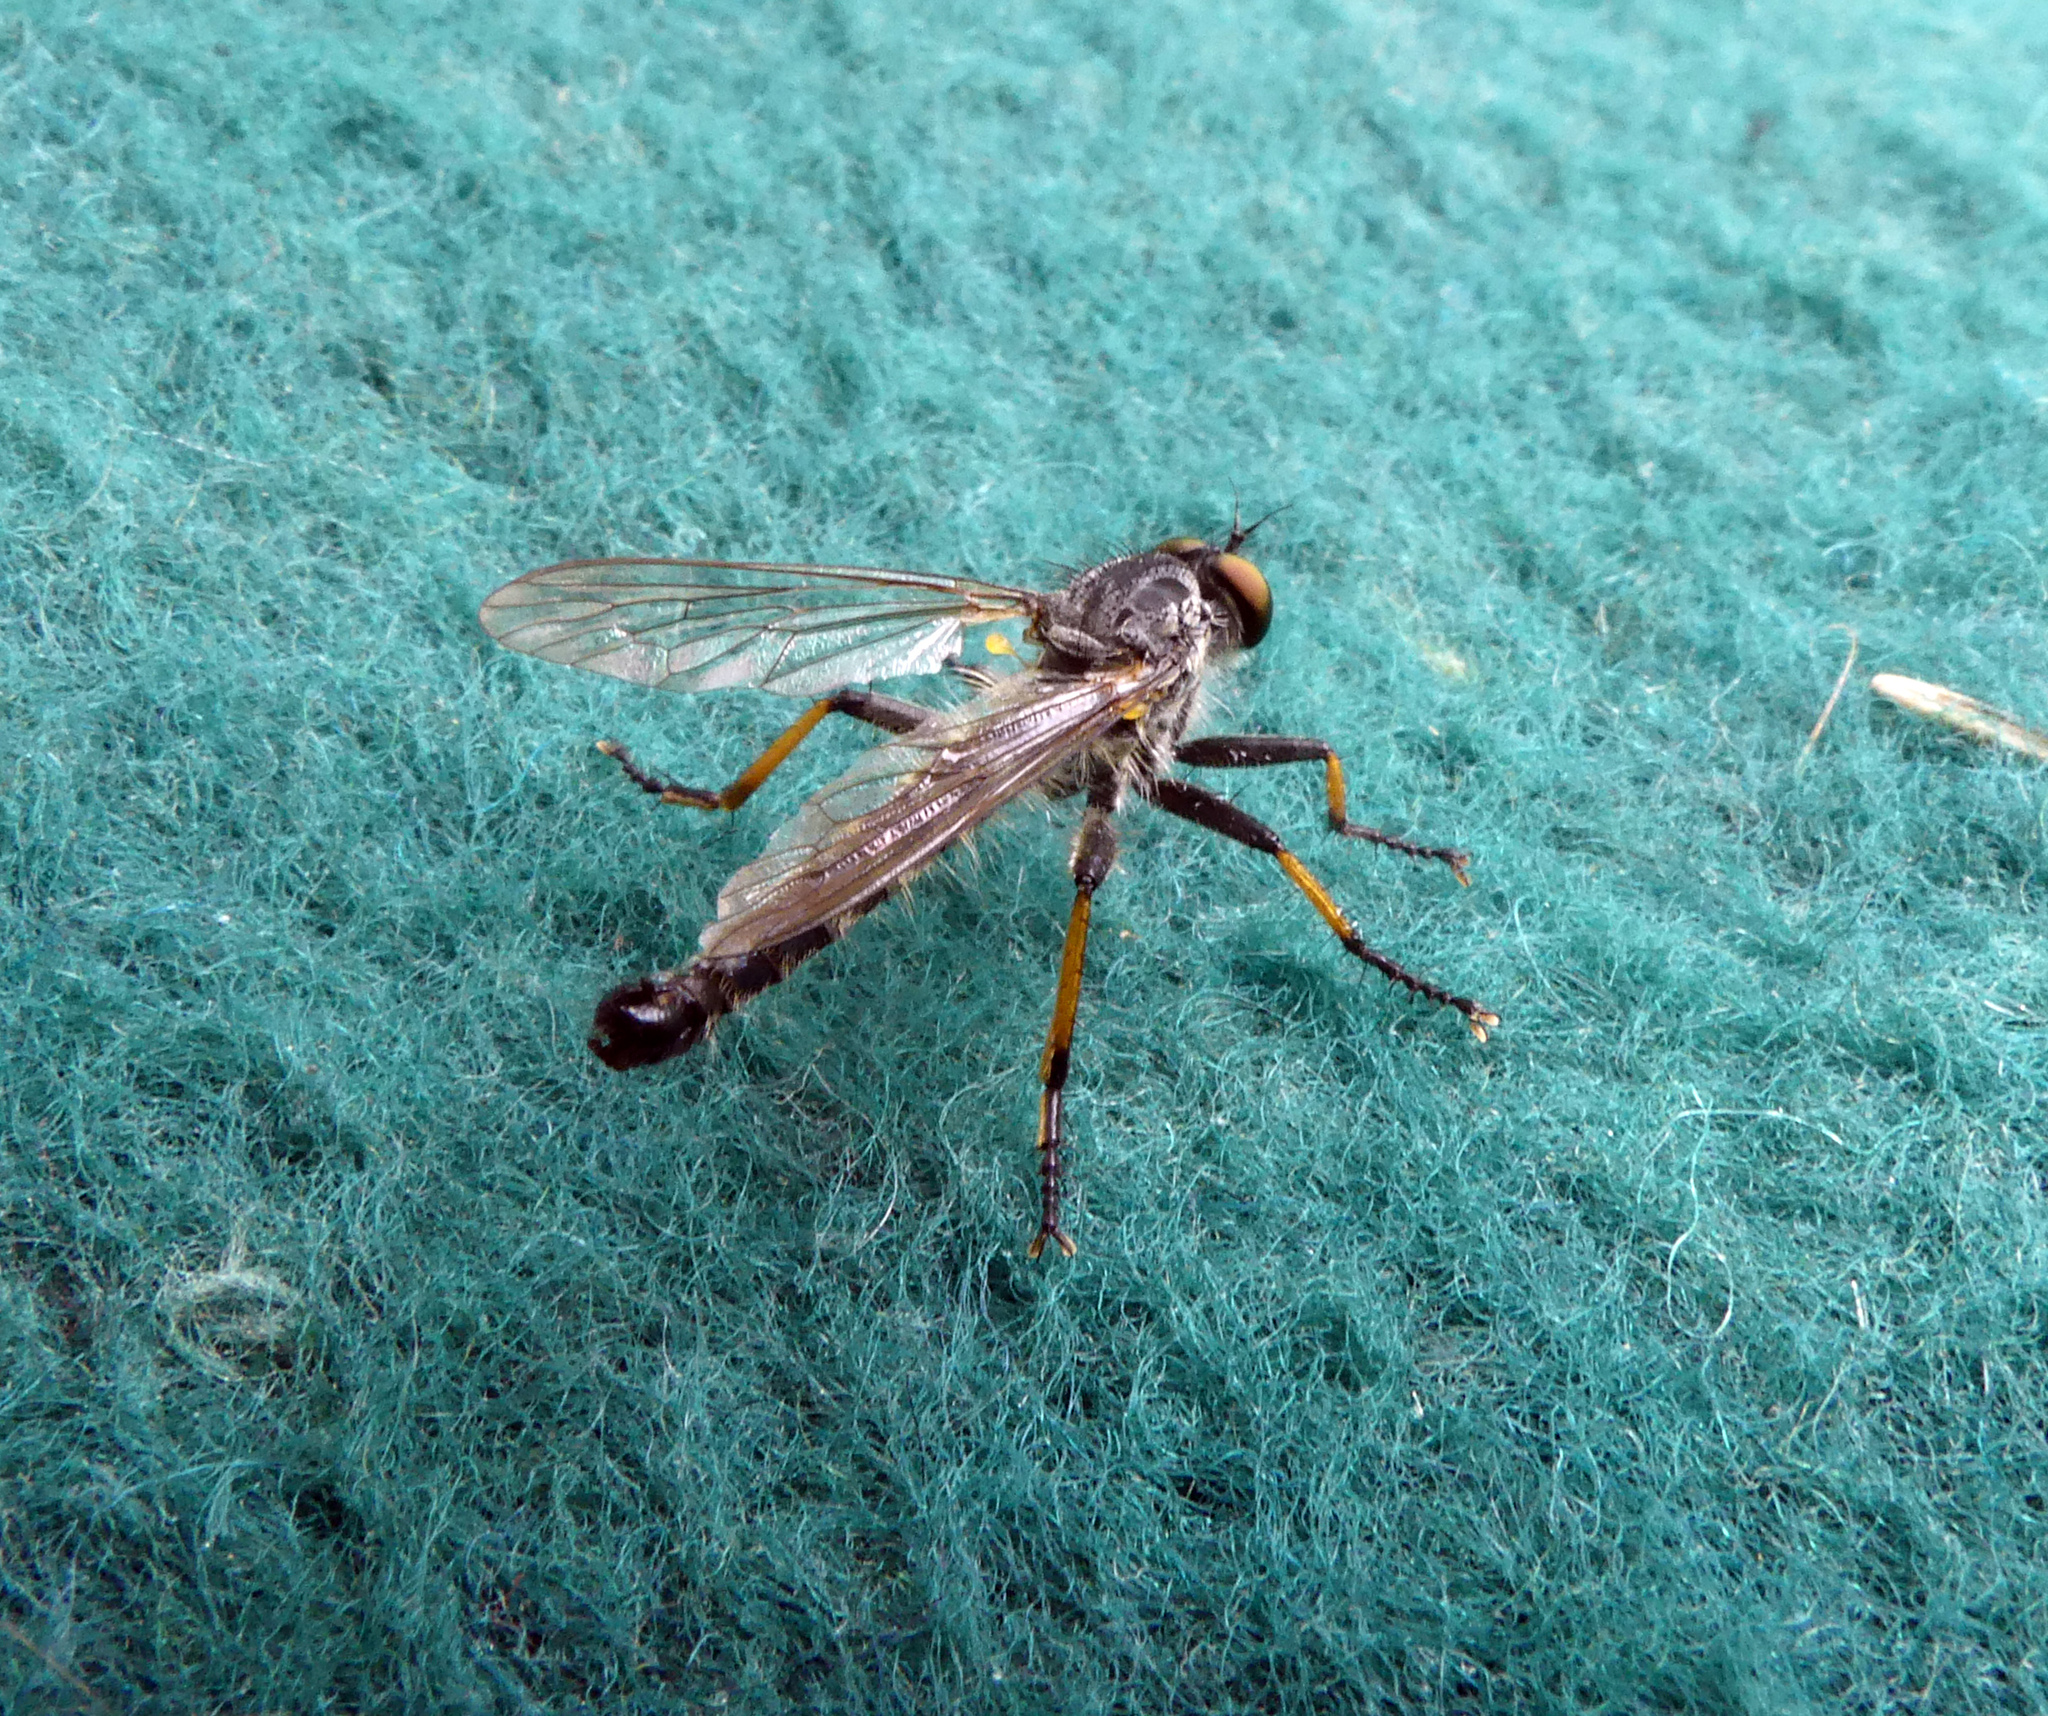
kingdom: Animalia
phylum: Arthropoda
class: Insecta
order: Diptera
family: Asilidae
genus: Neoitamus
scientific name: Neoitamus cyanurus
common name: Common awl robberfly
